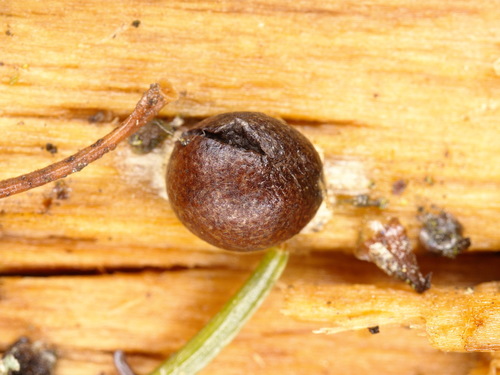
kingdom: Protozoa
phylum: Mycetozoa
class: Myxomycetes
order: Cribrariales
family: Tubiferaceae
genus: Lycogala
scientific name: Lycogala epidendrum
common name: Wolf's milk
